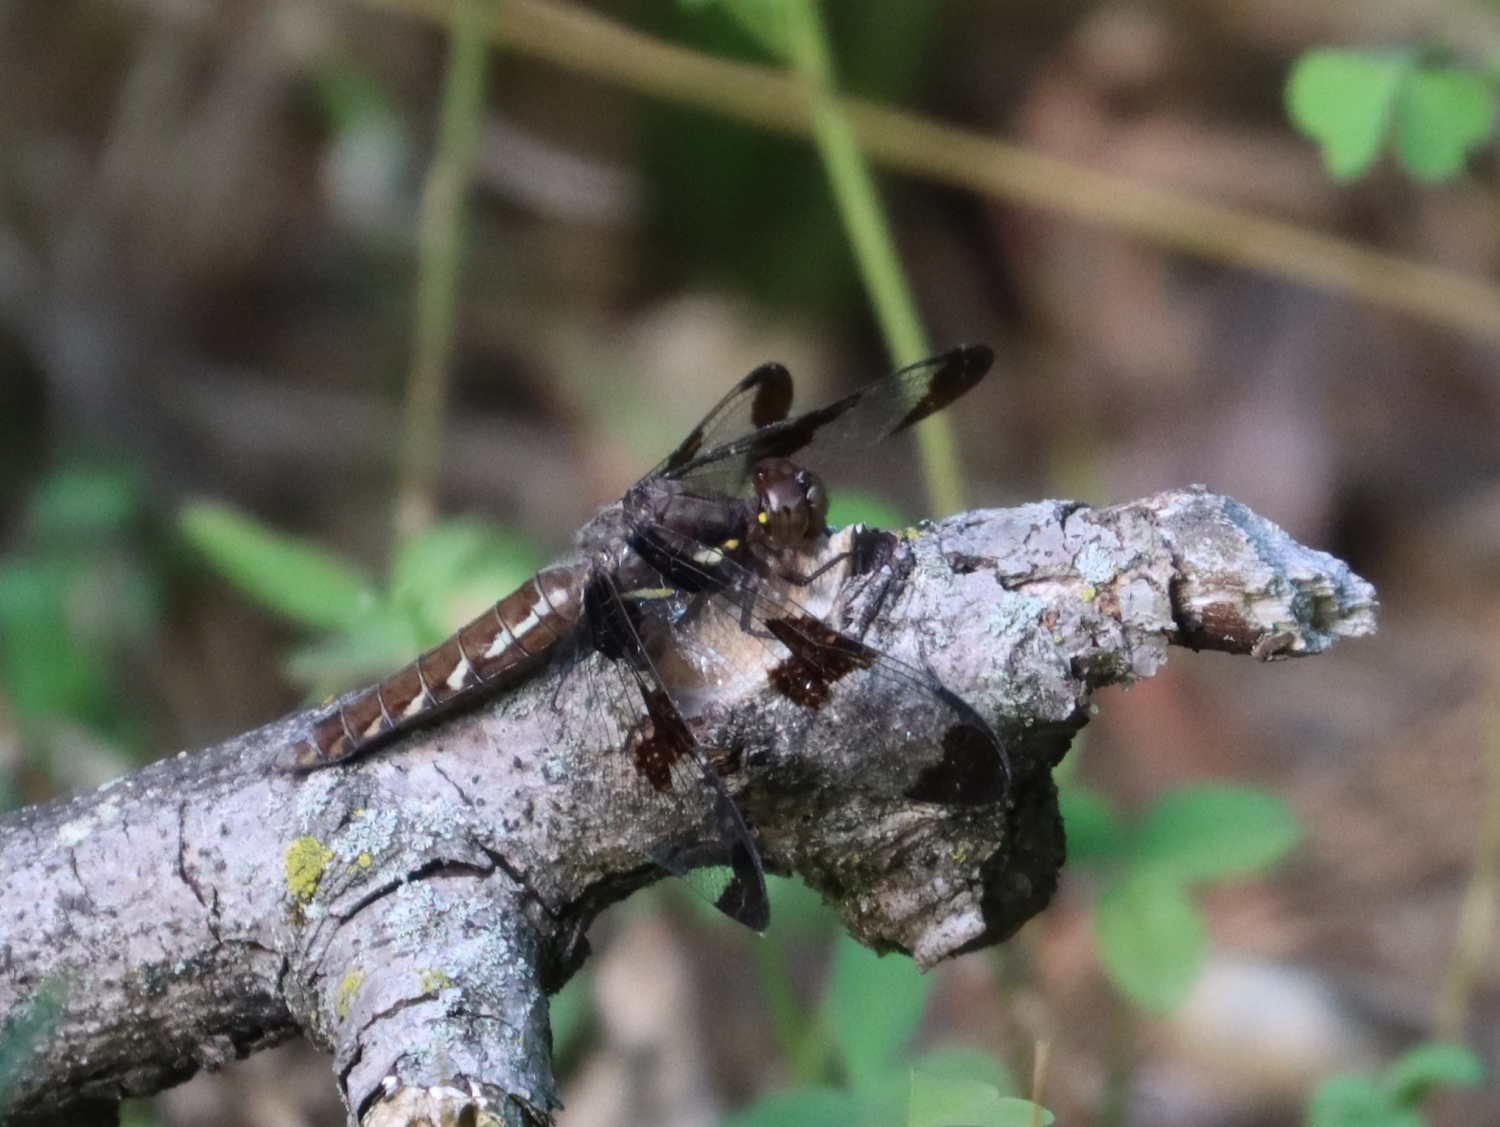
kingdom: Animalia
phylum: Arthropoda
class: Insecta
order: Odonata
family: Libellulidae
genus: Plathemis
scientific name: Plathemis lydia
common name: Common whitetail
